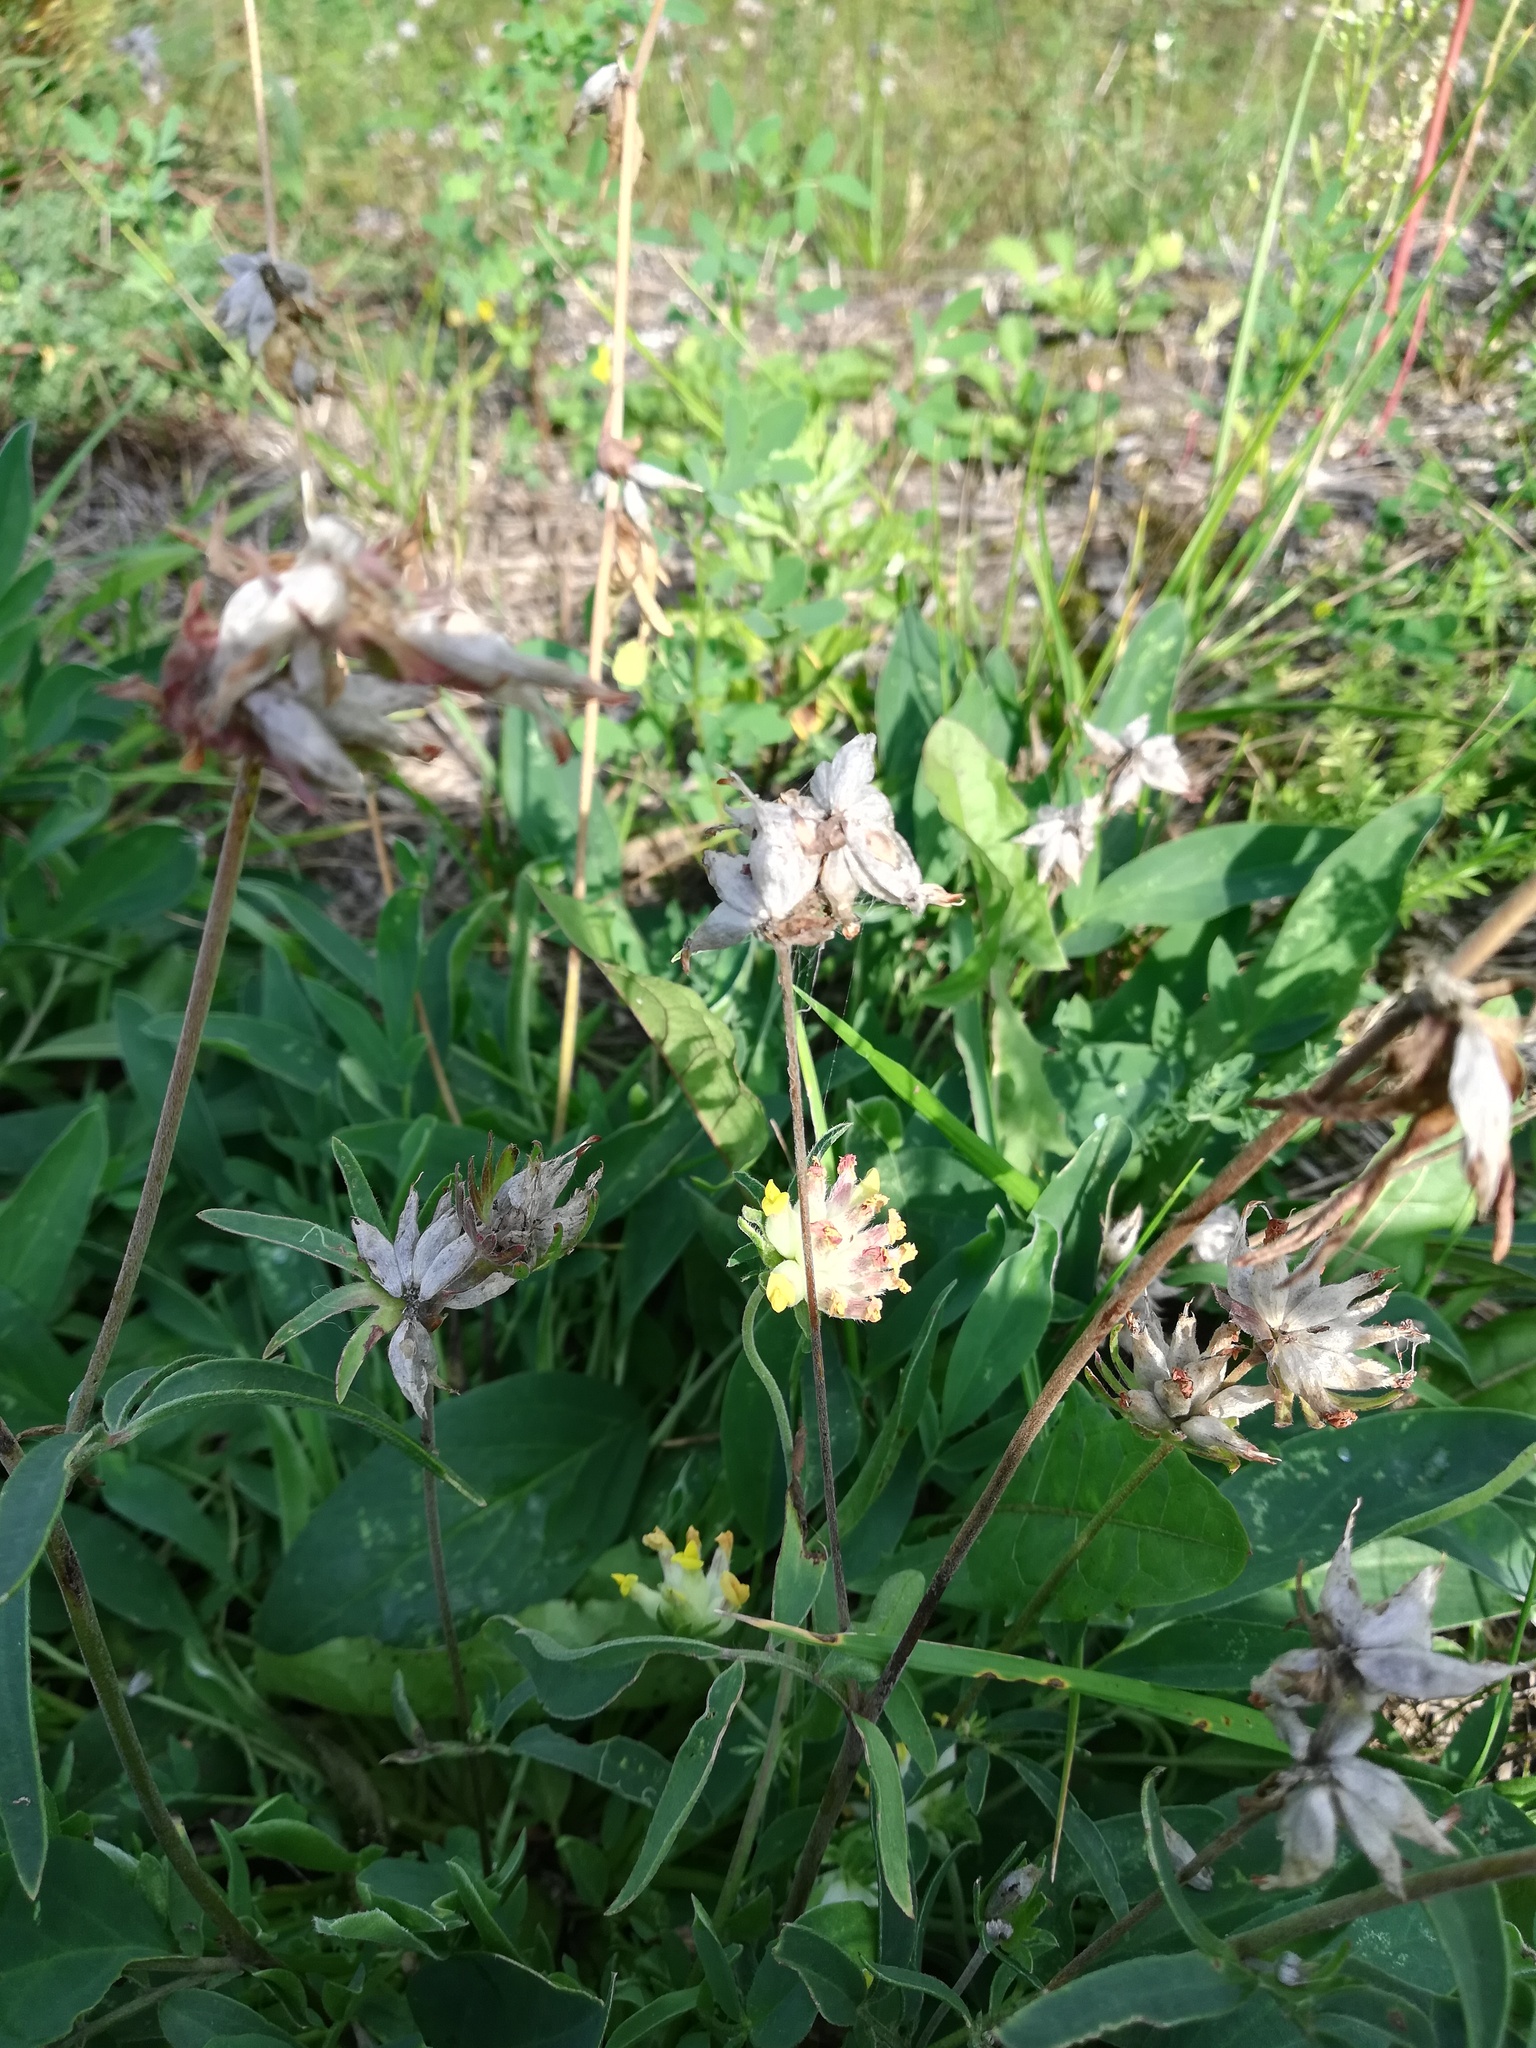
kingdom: Plantae
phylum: Tracheophyta
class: Magnoliopsida
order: Fabales
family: Fabaceae
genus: Anthyllis
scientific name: Anthyllis vulneraria
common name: Kidney vetch
